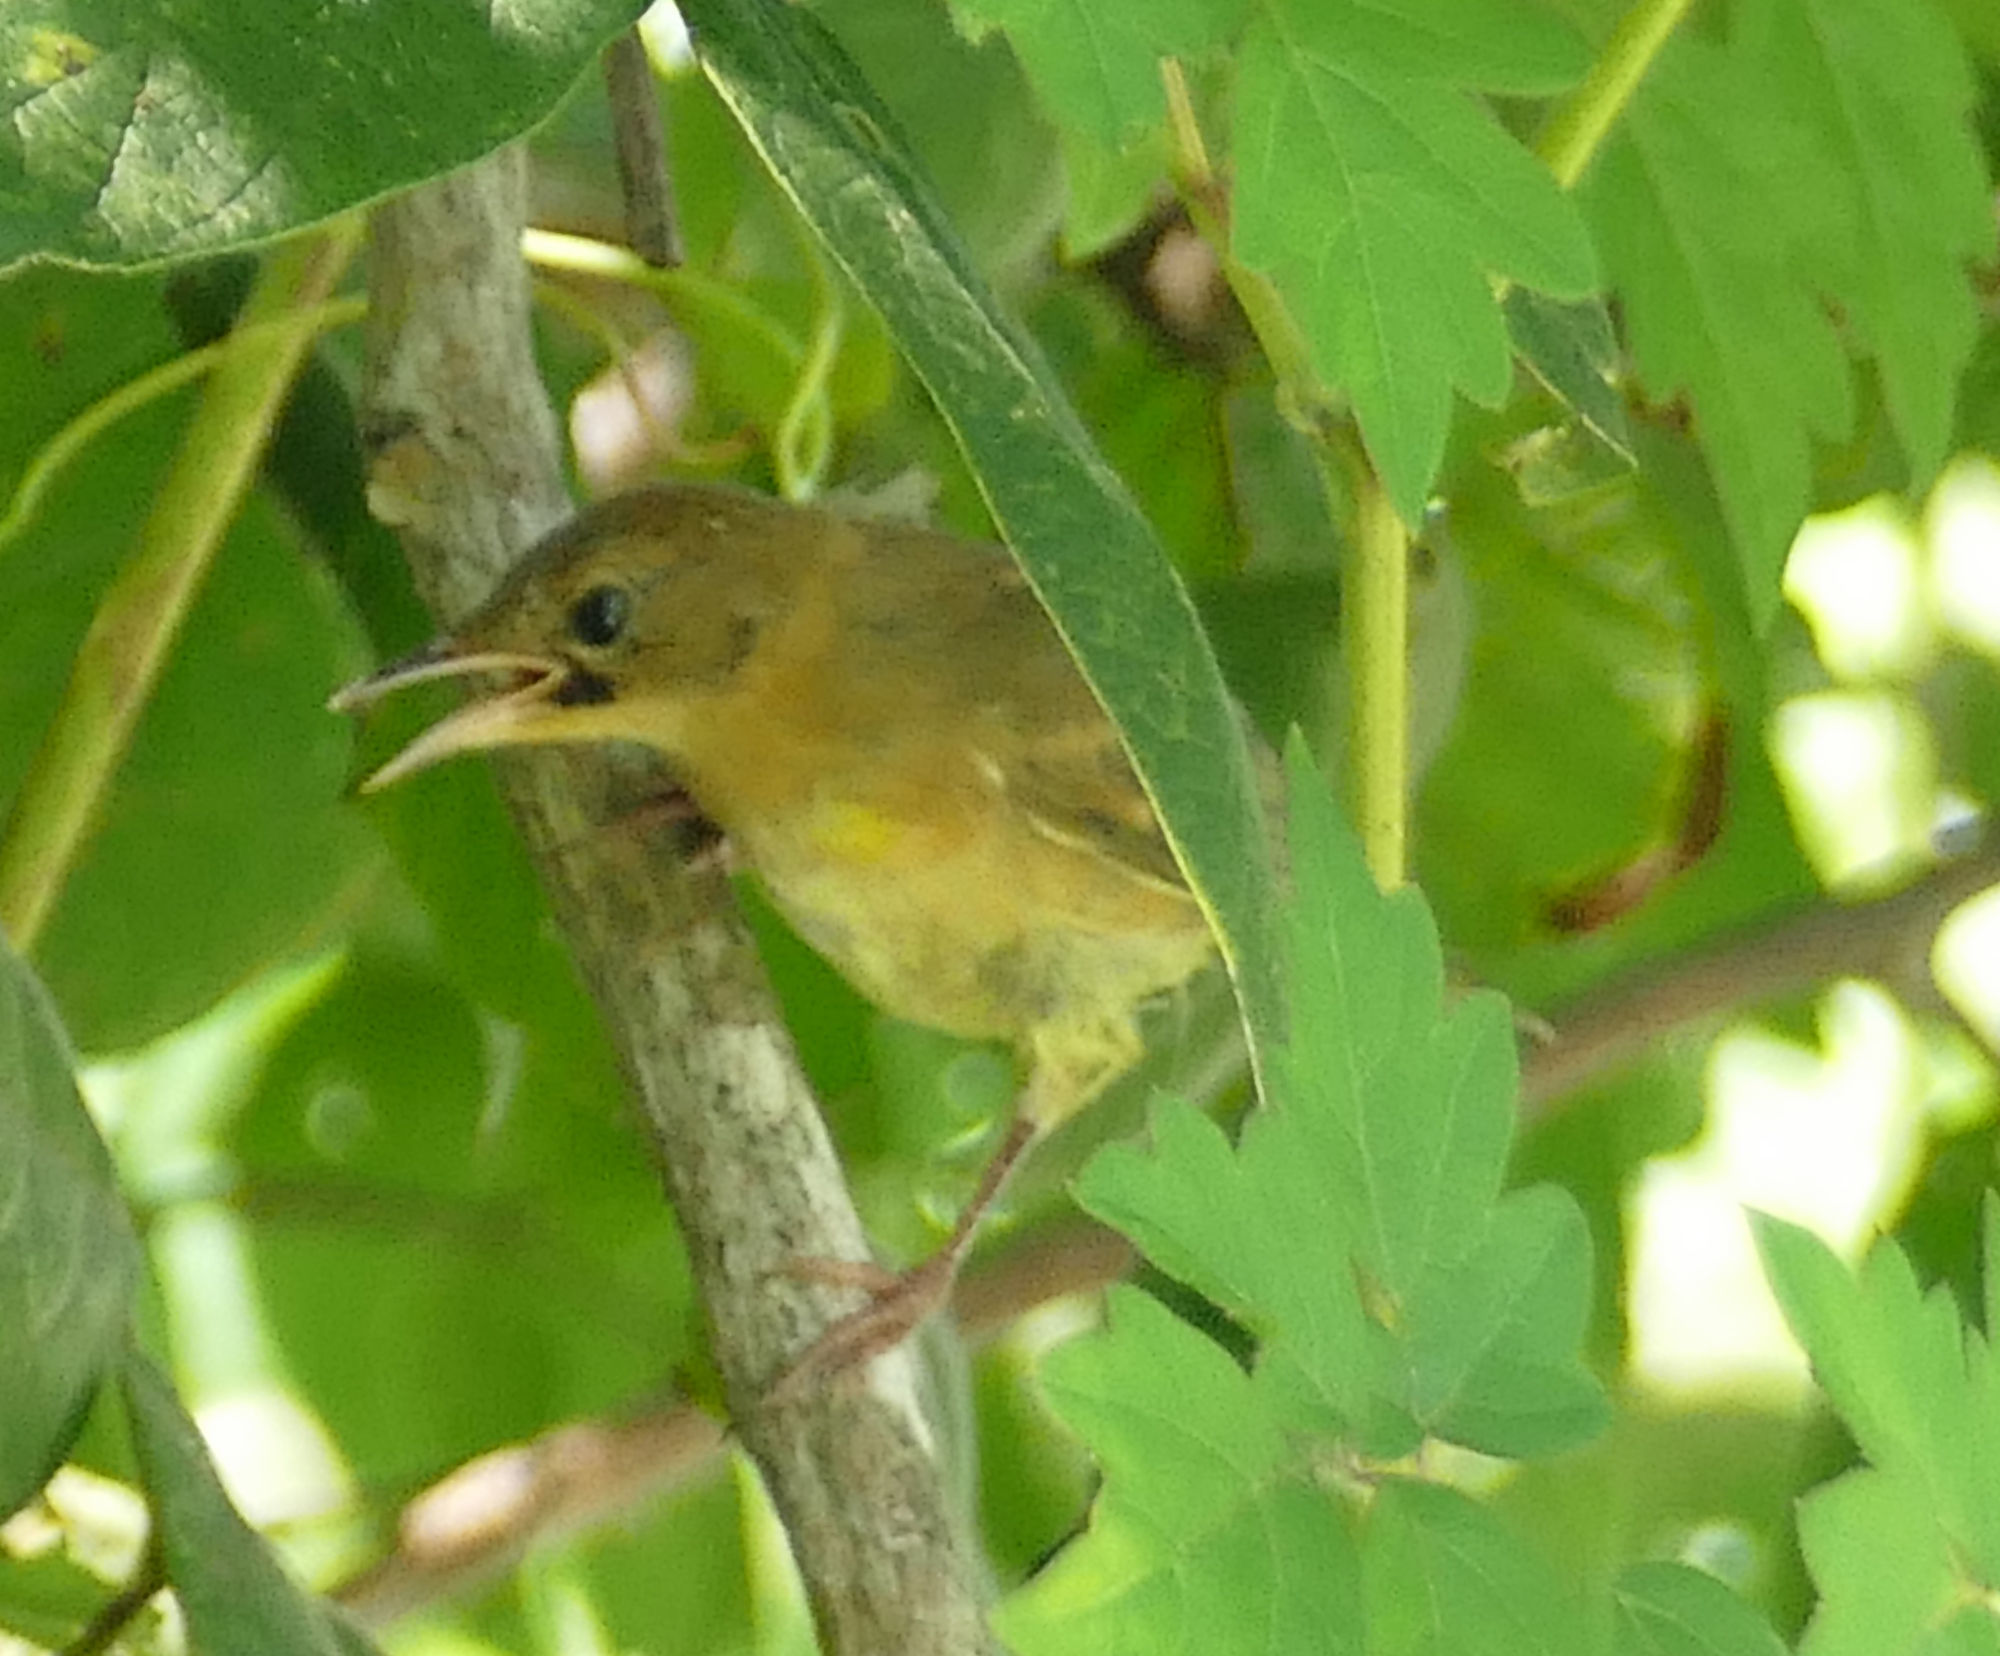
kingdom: Animalia
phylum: Chordata
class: Aves
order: Passeriformes
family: Parulidae
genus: Geothlypis
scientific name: Geothlypis trichas
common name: Common yellowthroat
